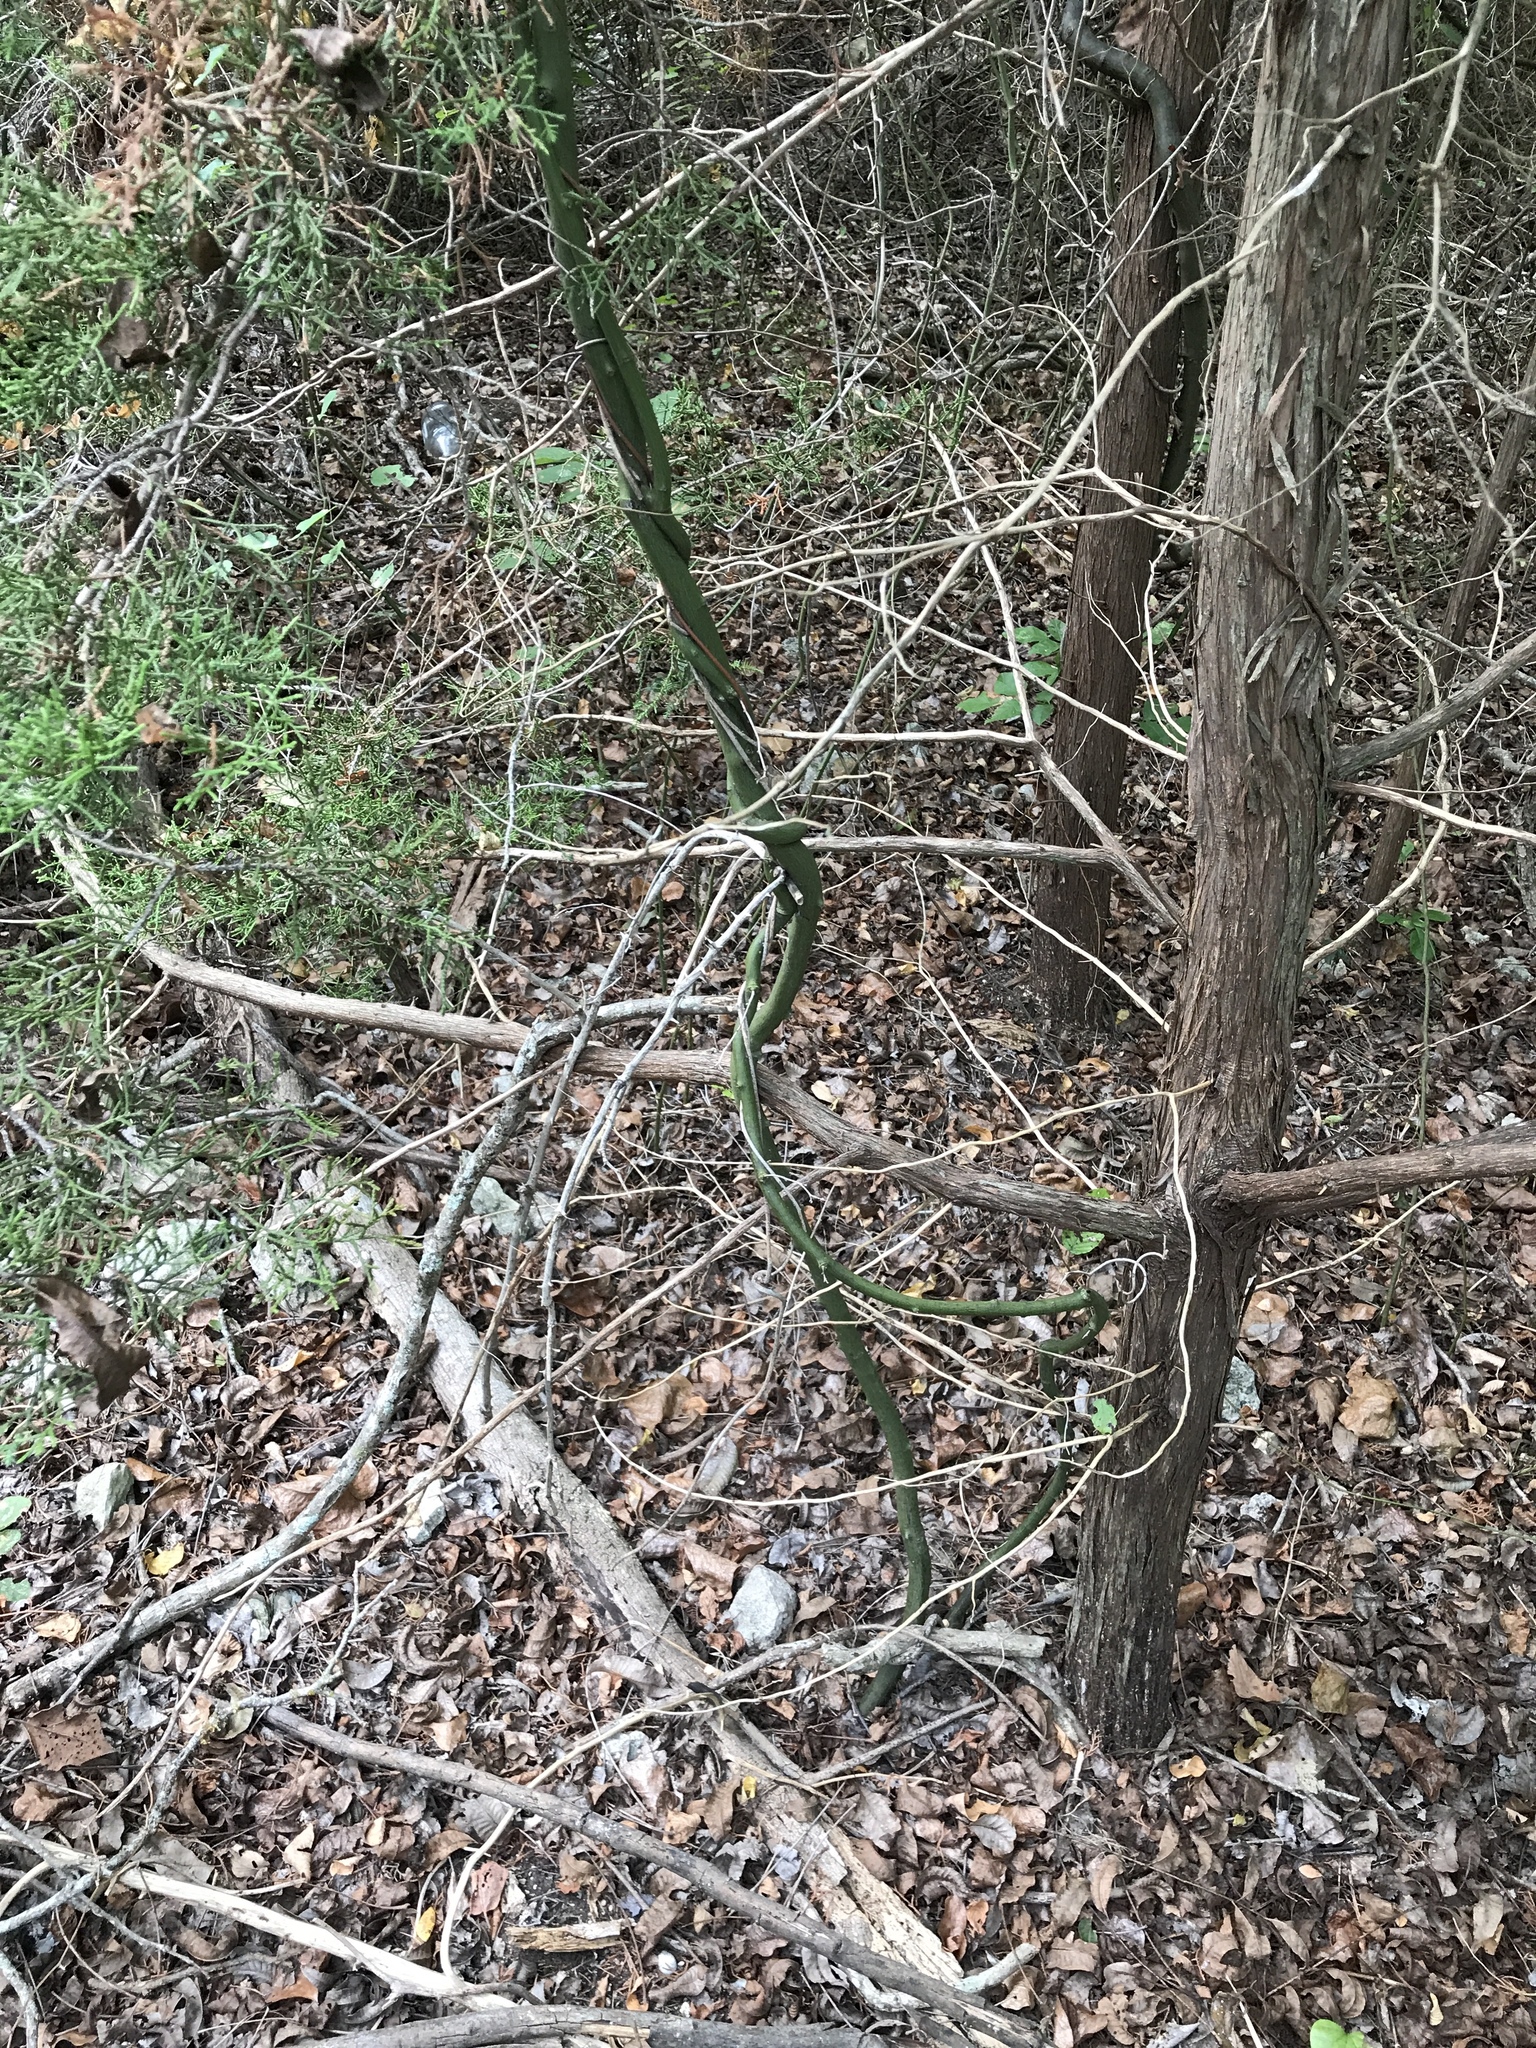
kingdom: Plantae
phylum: Tracheophyta
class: Magnoliopsida
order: Rosales
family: Rhamnaceae
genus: Berchemia
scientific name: Berchemia scandens
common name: Supplejack
